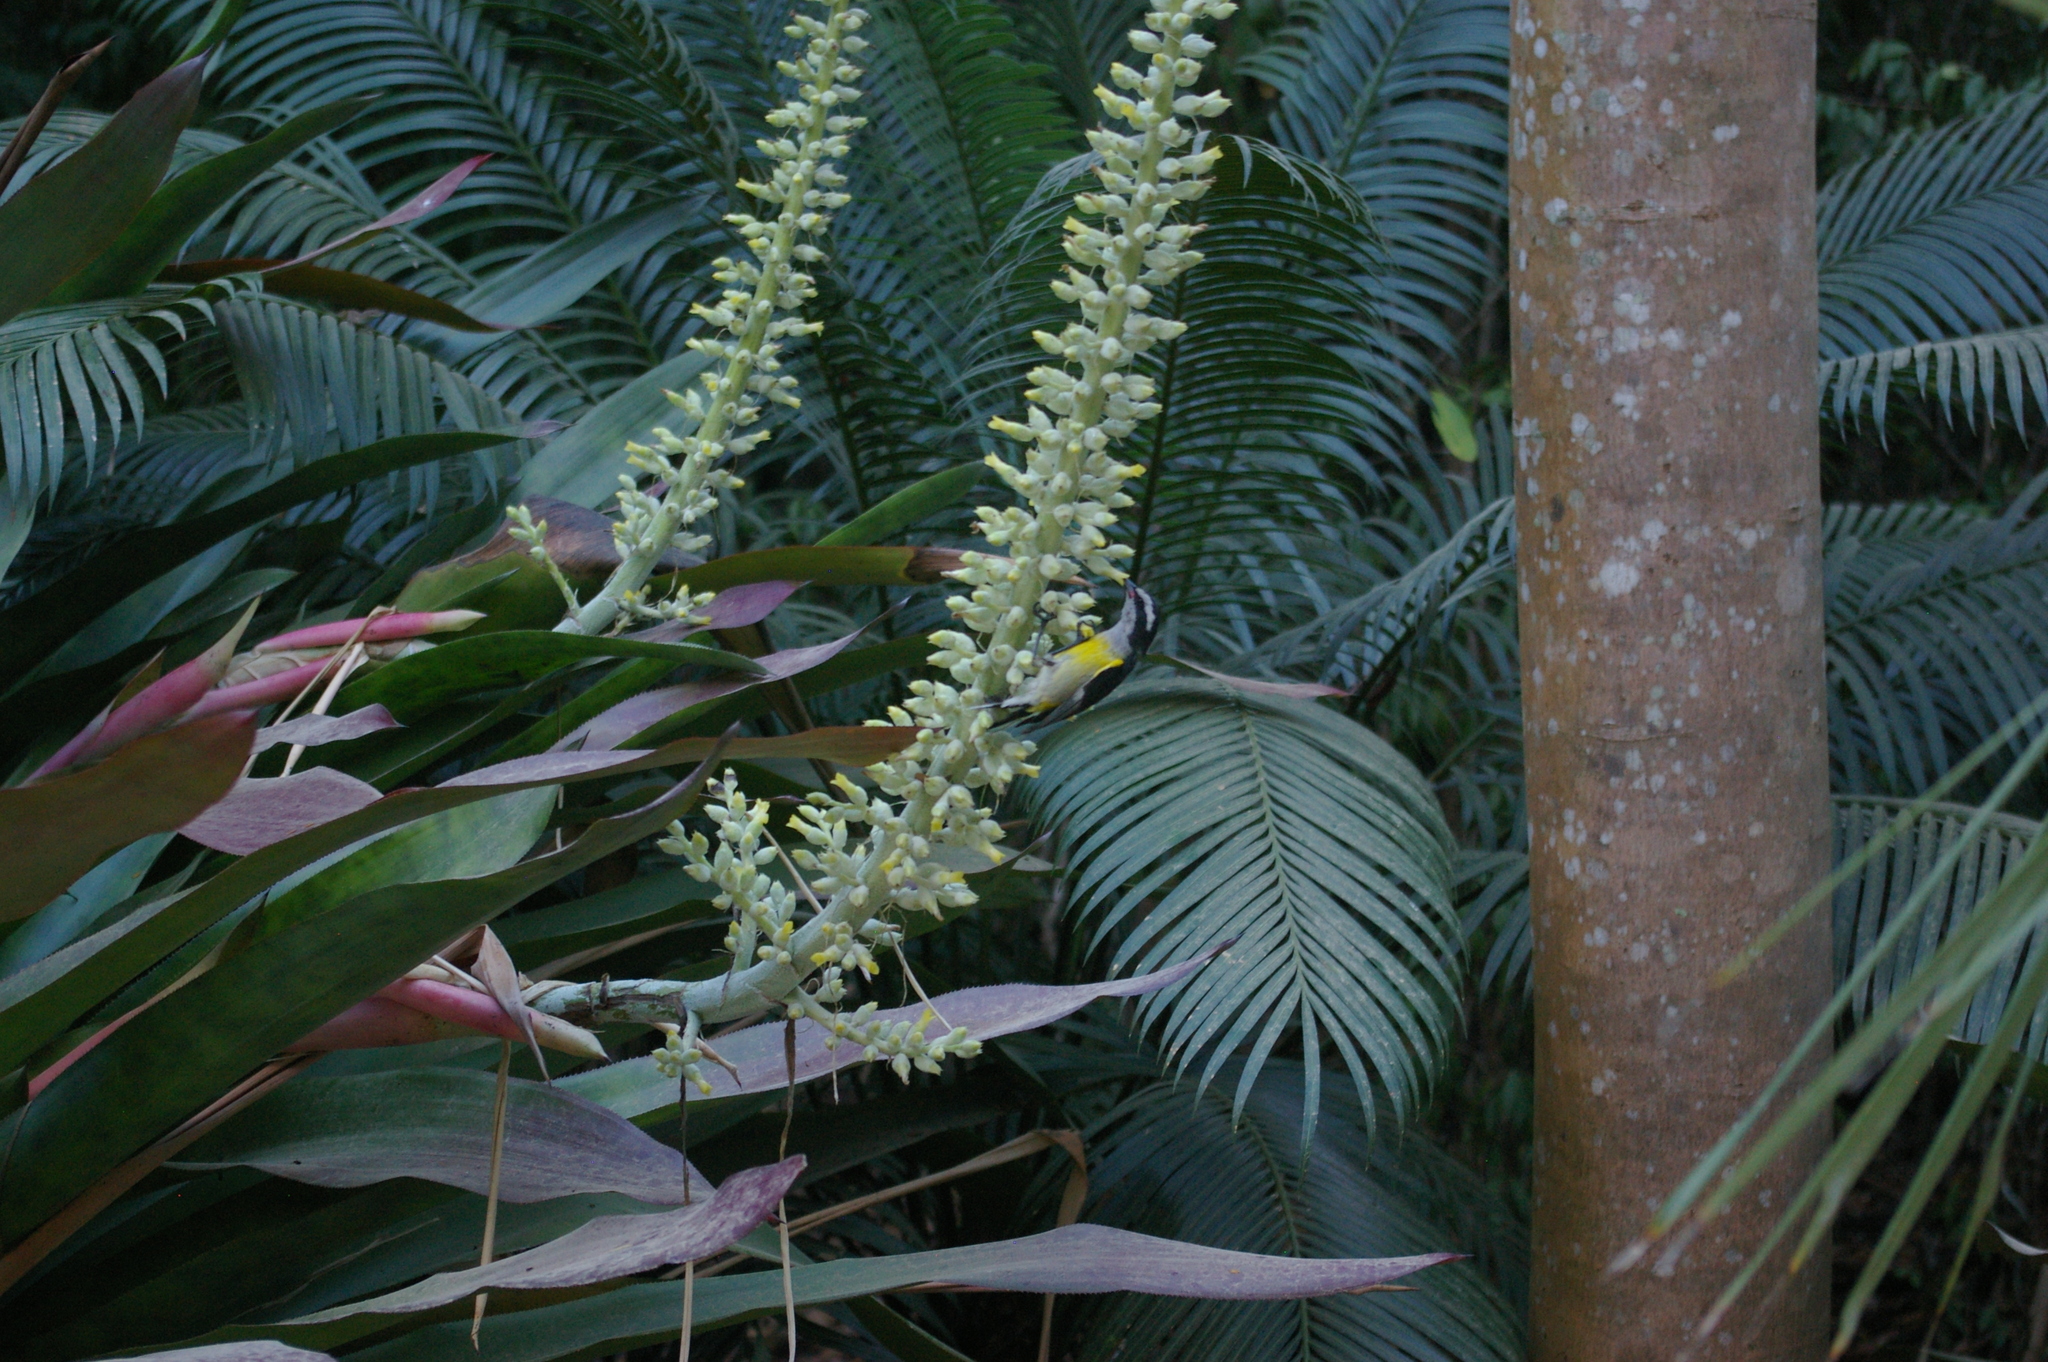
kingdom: Animalia
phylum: Chordata
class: Aves
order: Passeriformes
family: Thraupidae
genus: Coereba
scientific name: Coereba flaveola
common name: Bananaquit
